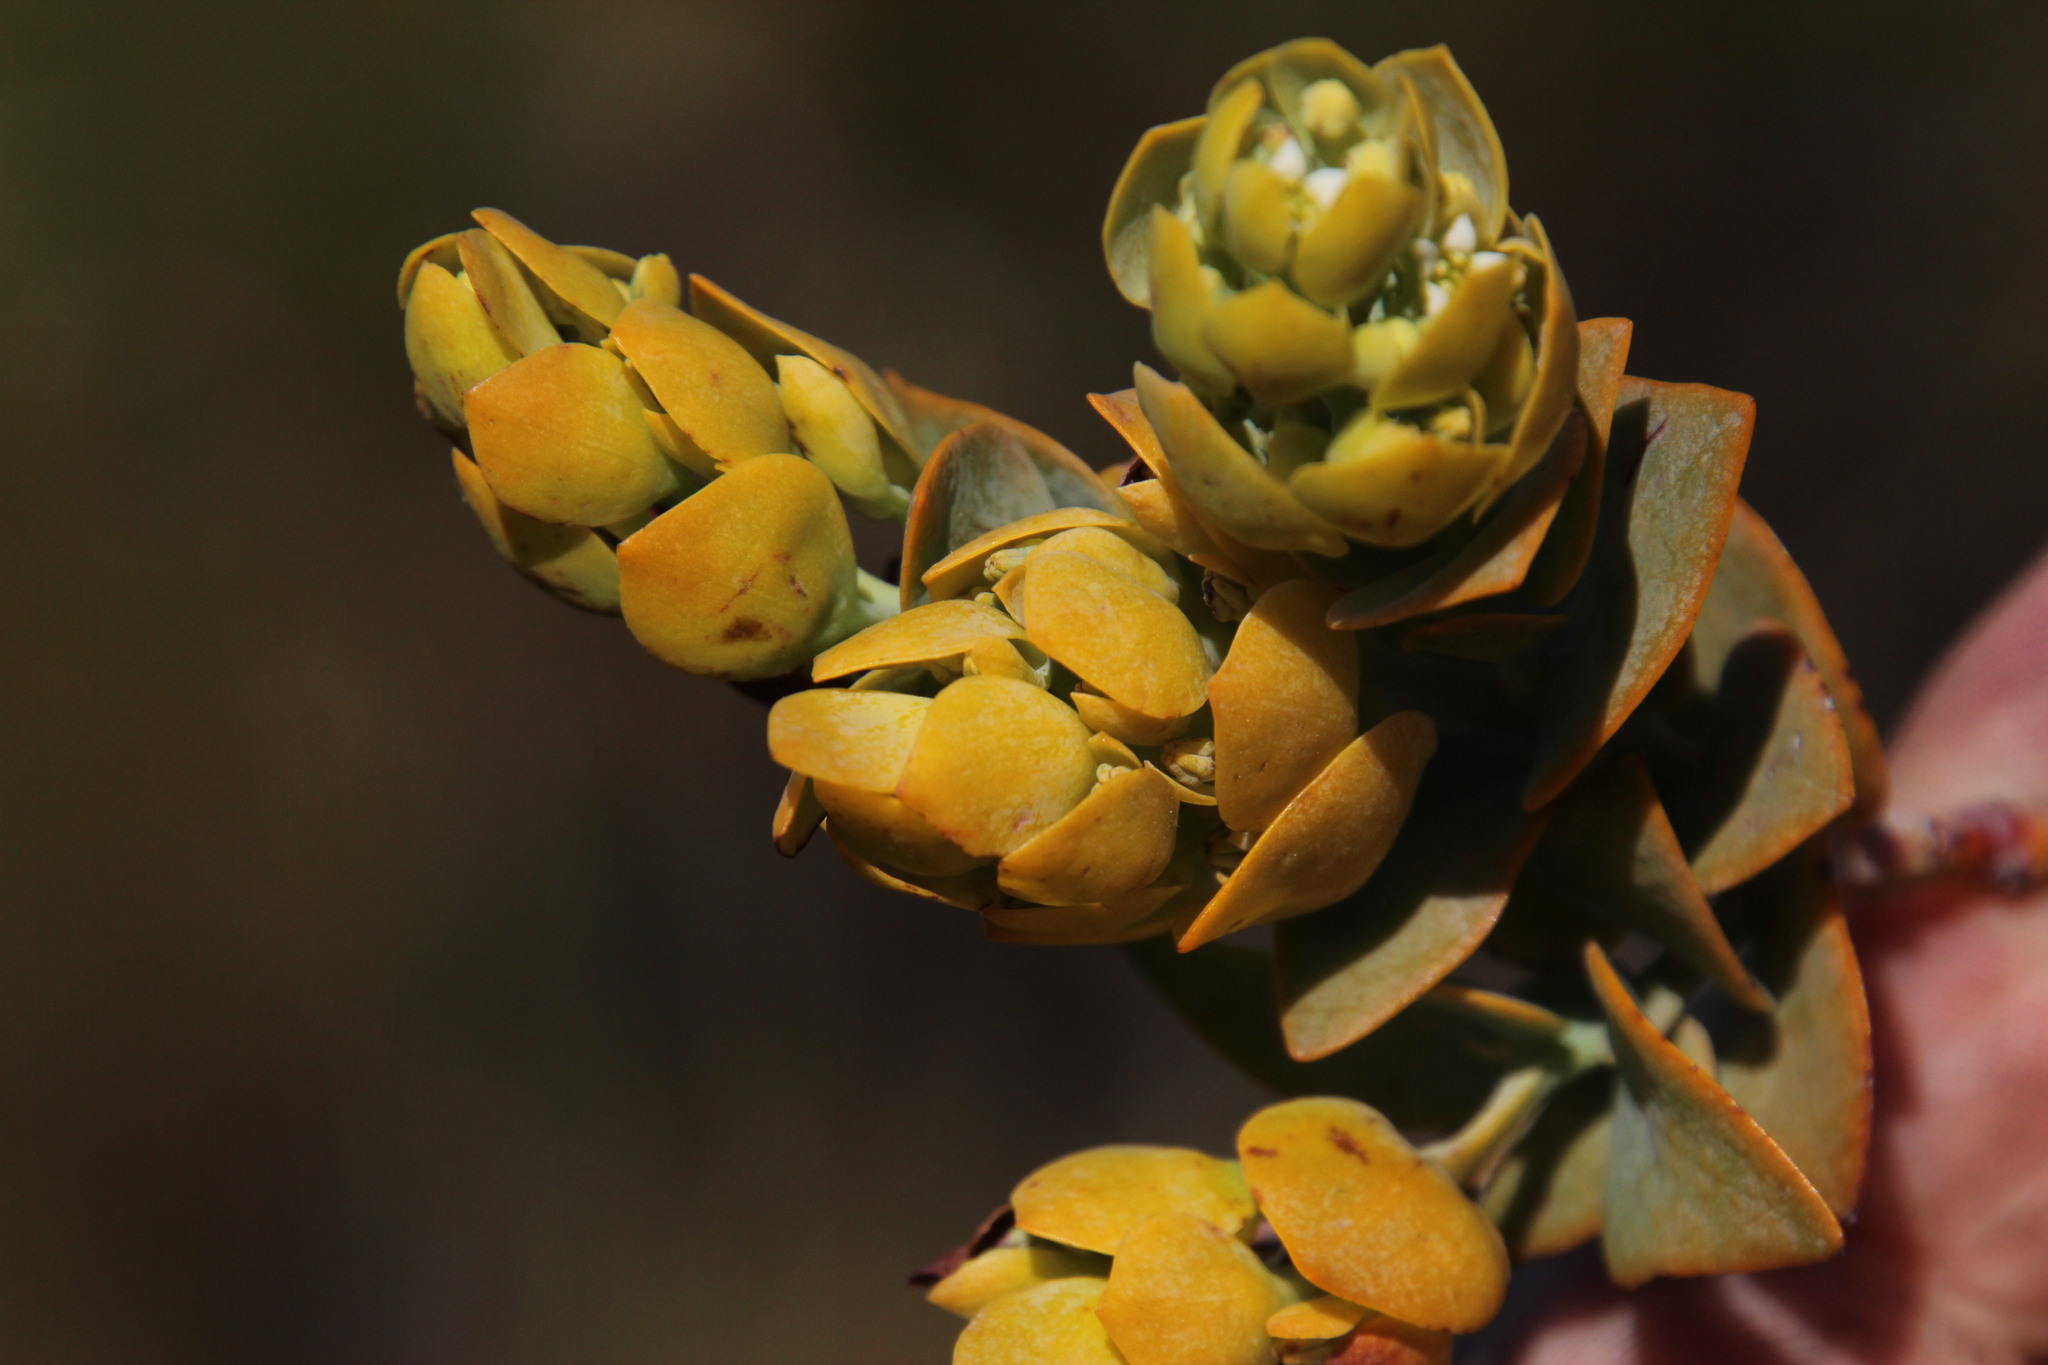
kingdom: Plantae
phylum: Tracheophyta
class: Magnoliopsida
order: Santalales
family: Thesiaceae
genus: Thesium
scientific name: Thesium euphorbioides
